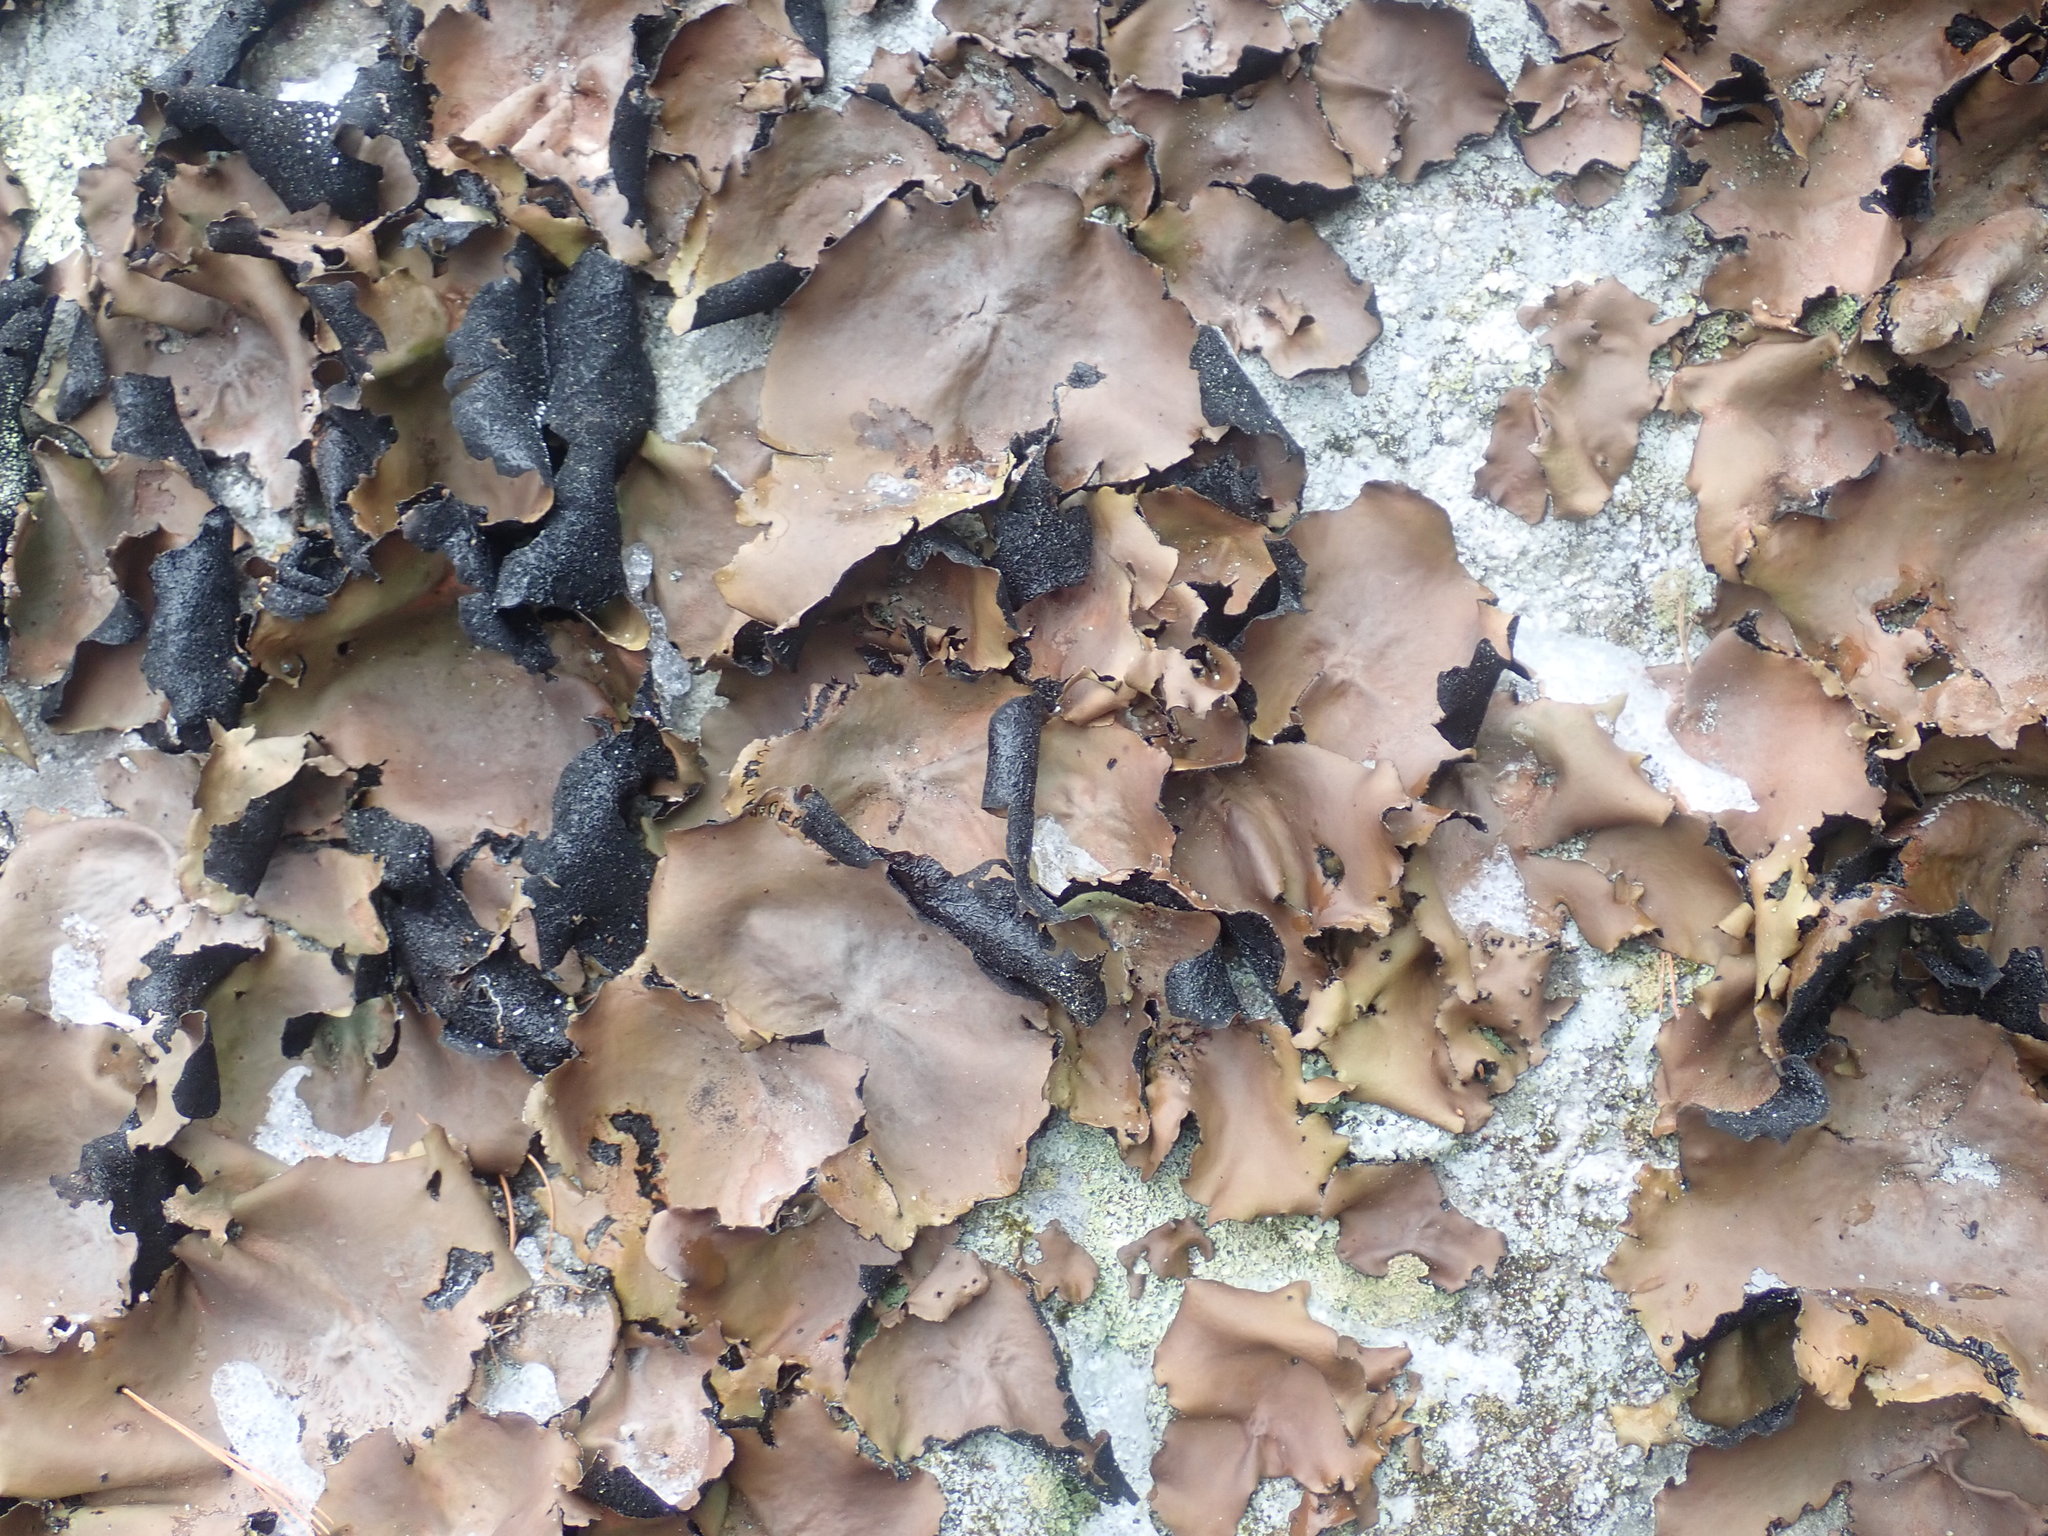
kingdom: Fungi
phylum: Ascomycota
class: Lecanoromycetes
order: Umbilicariales
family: Umbilicariaceae
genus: Umbilicaria
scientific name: Umbilicaria mammulata
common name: Smooth rock tripe
